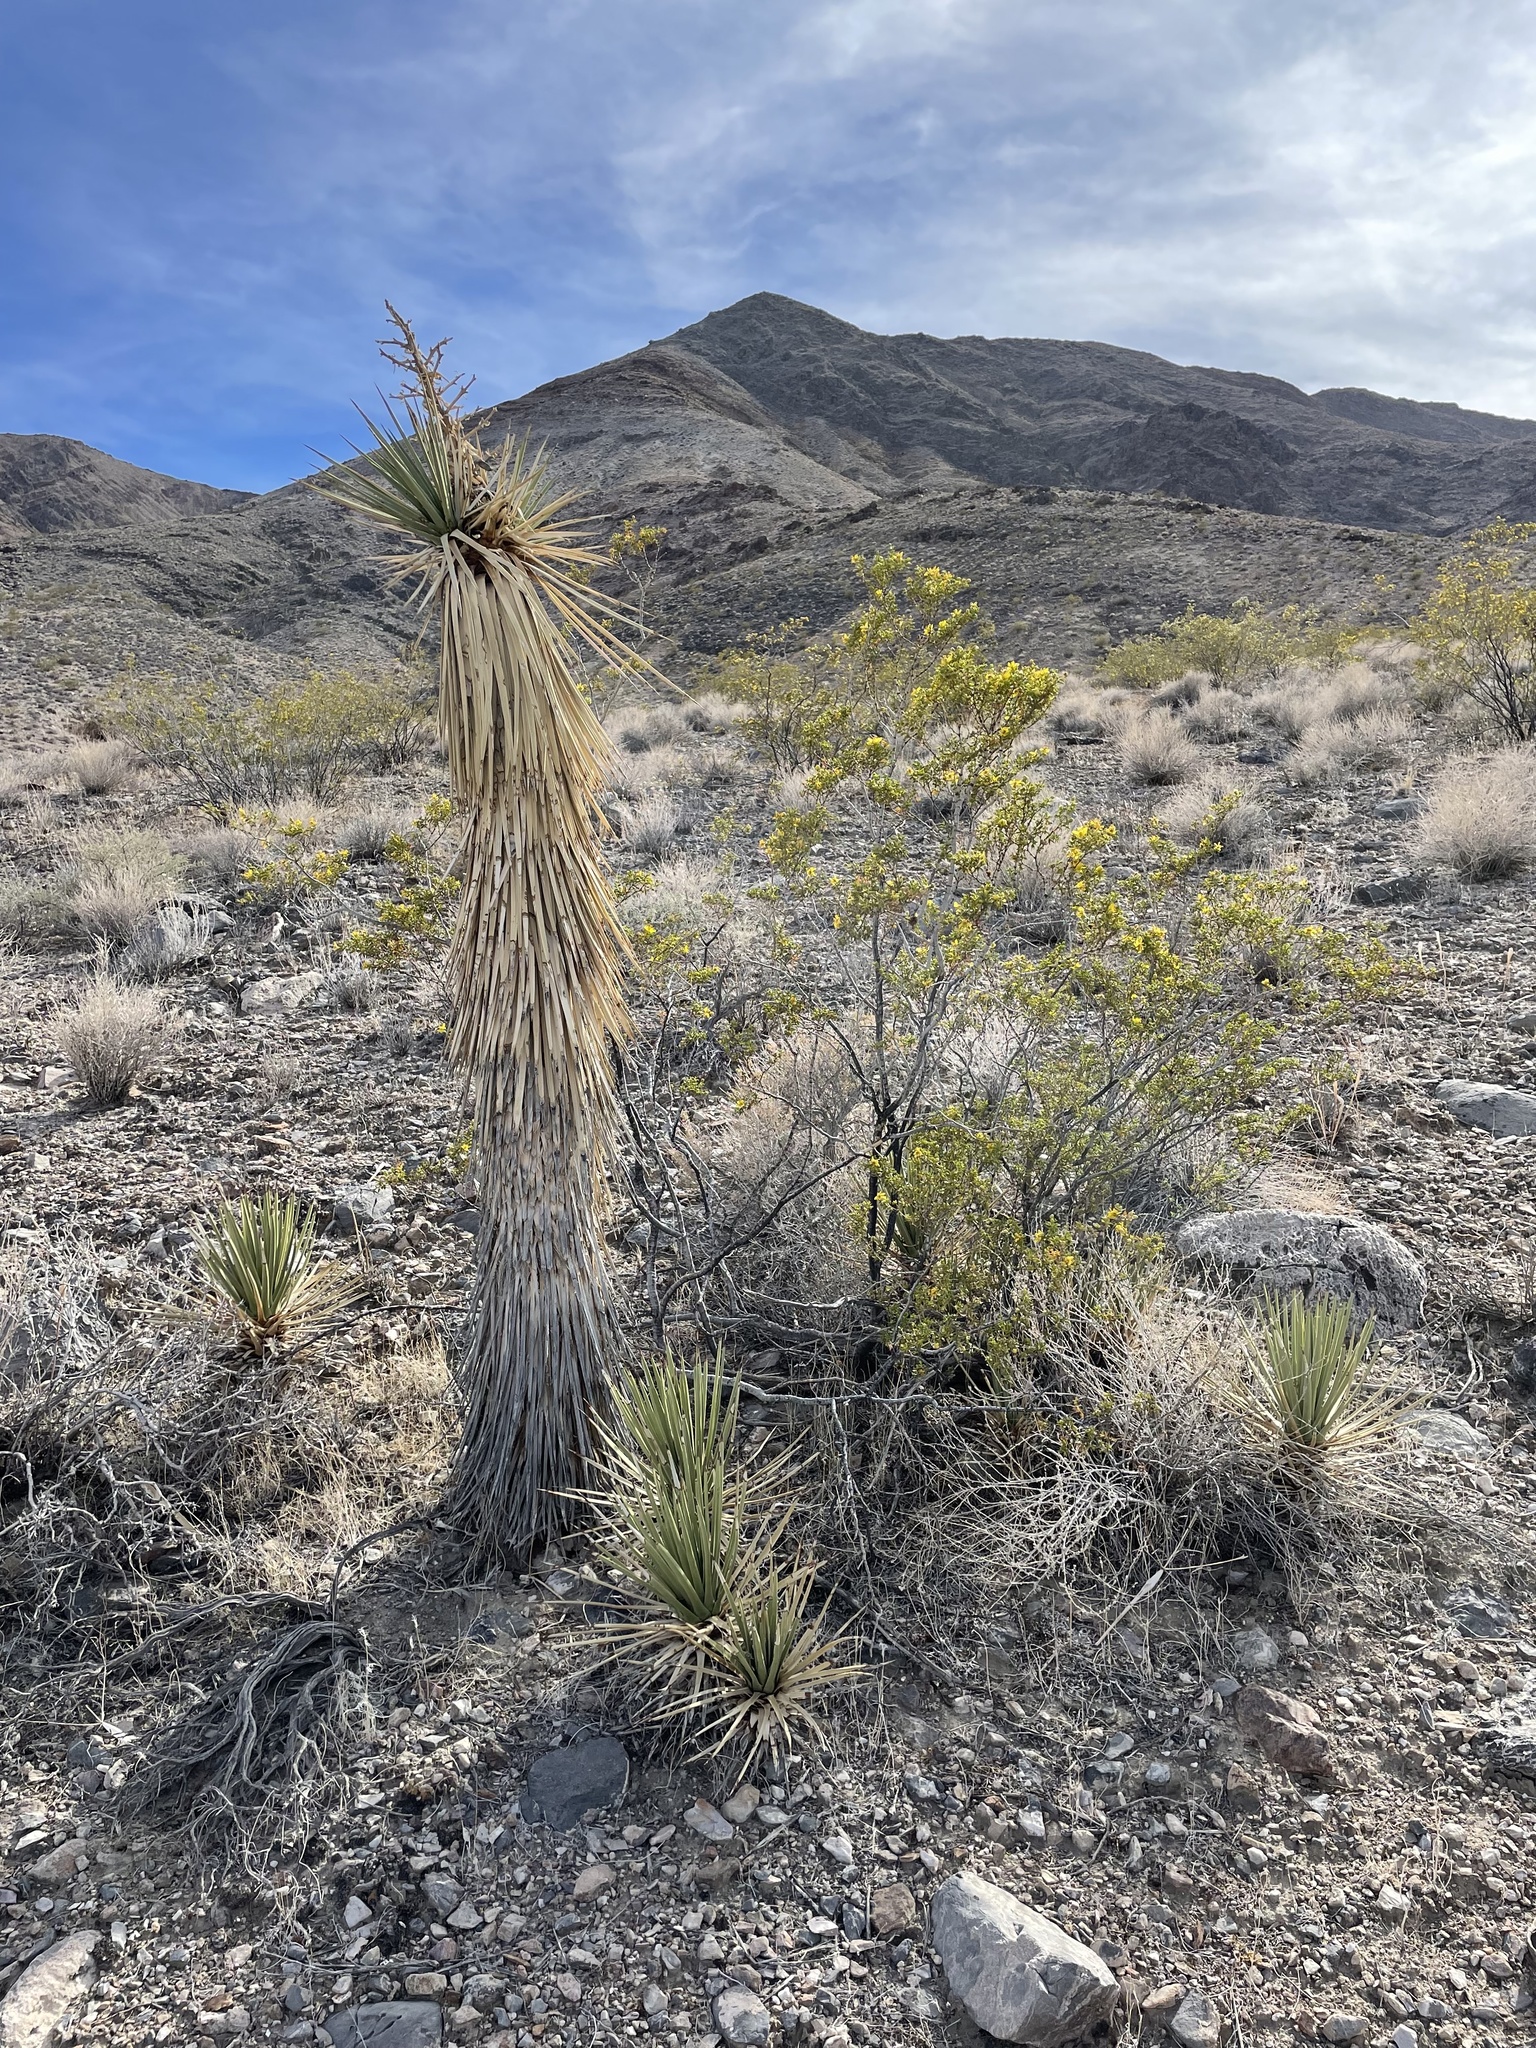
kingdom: Plantae
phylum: Tracheophyta
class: Liliopsida
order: Asparagales
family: Asparagaceae
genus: Yucca
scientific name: Yucca brevifolia
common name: Joshua tree
